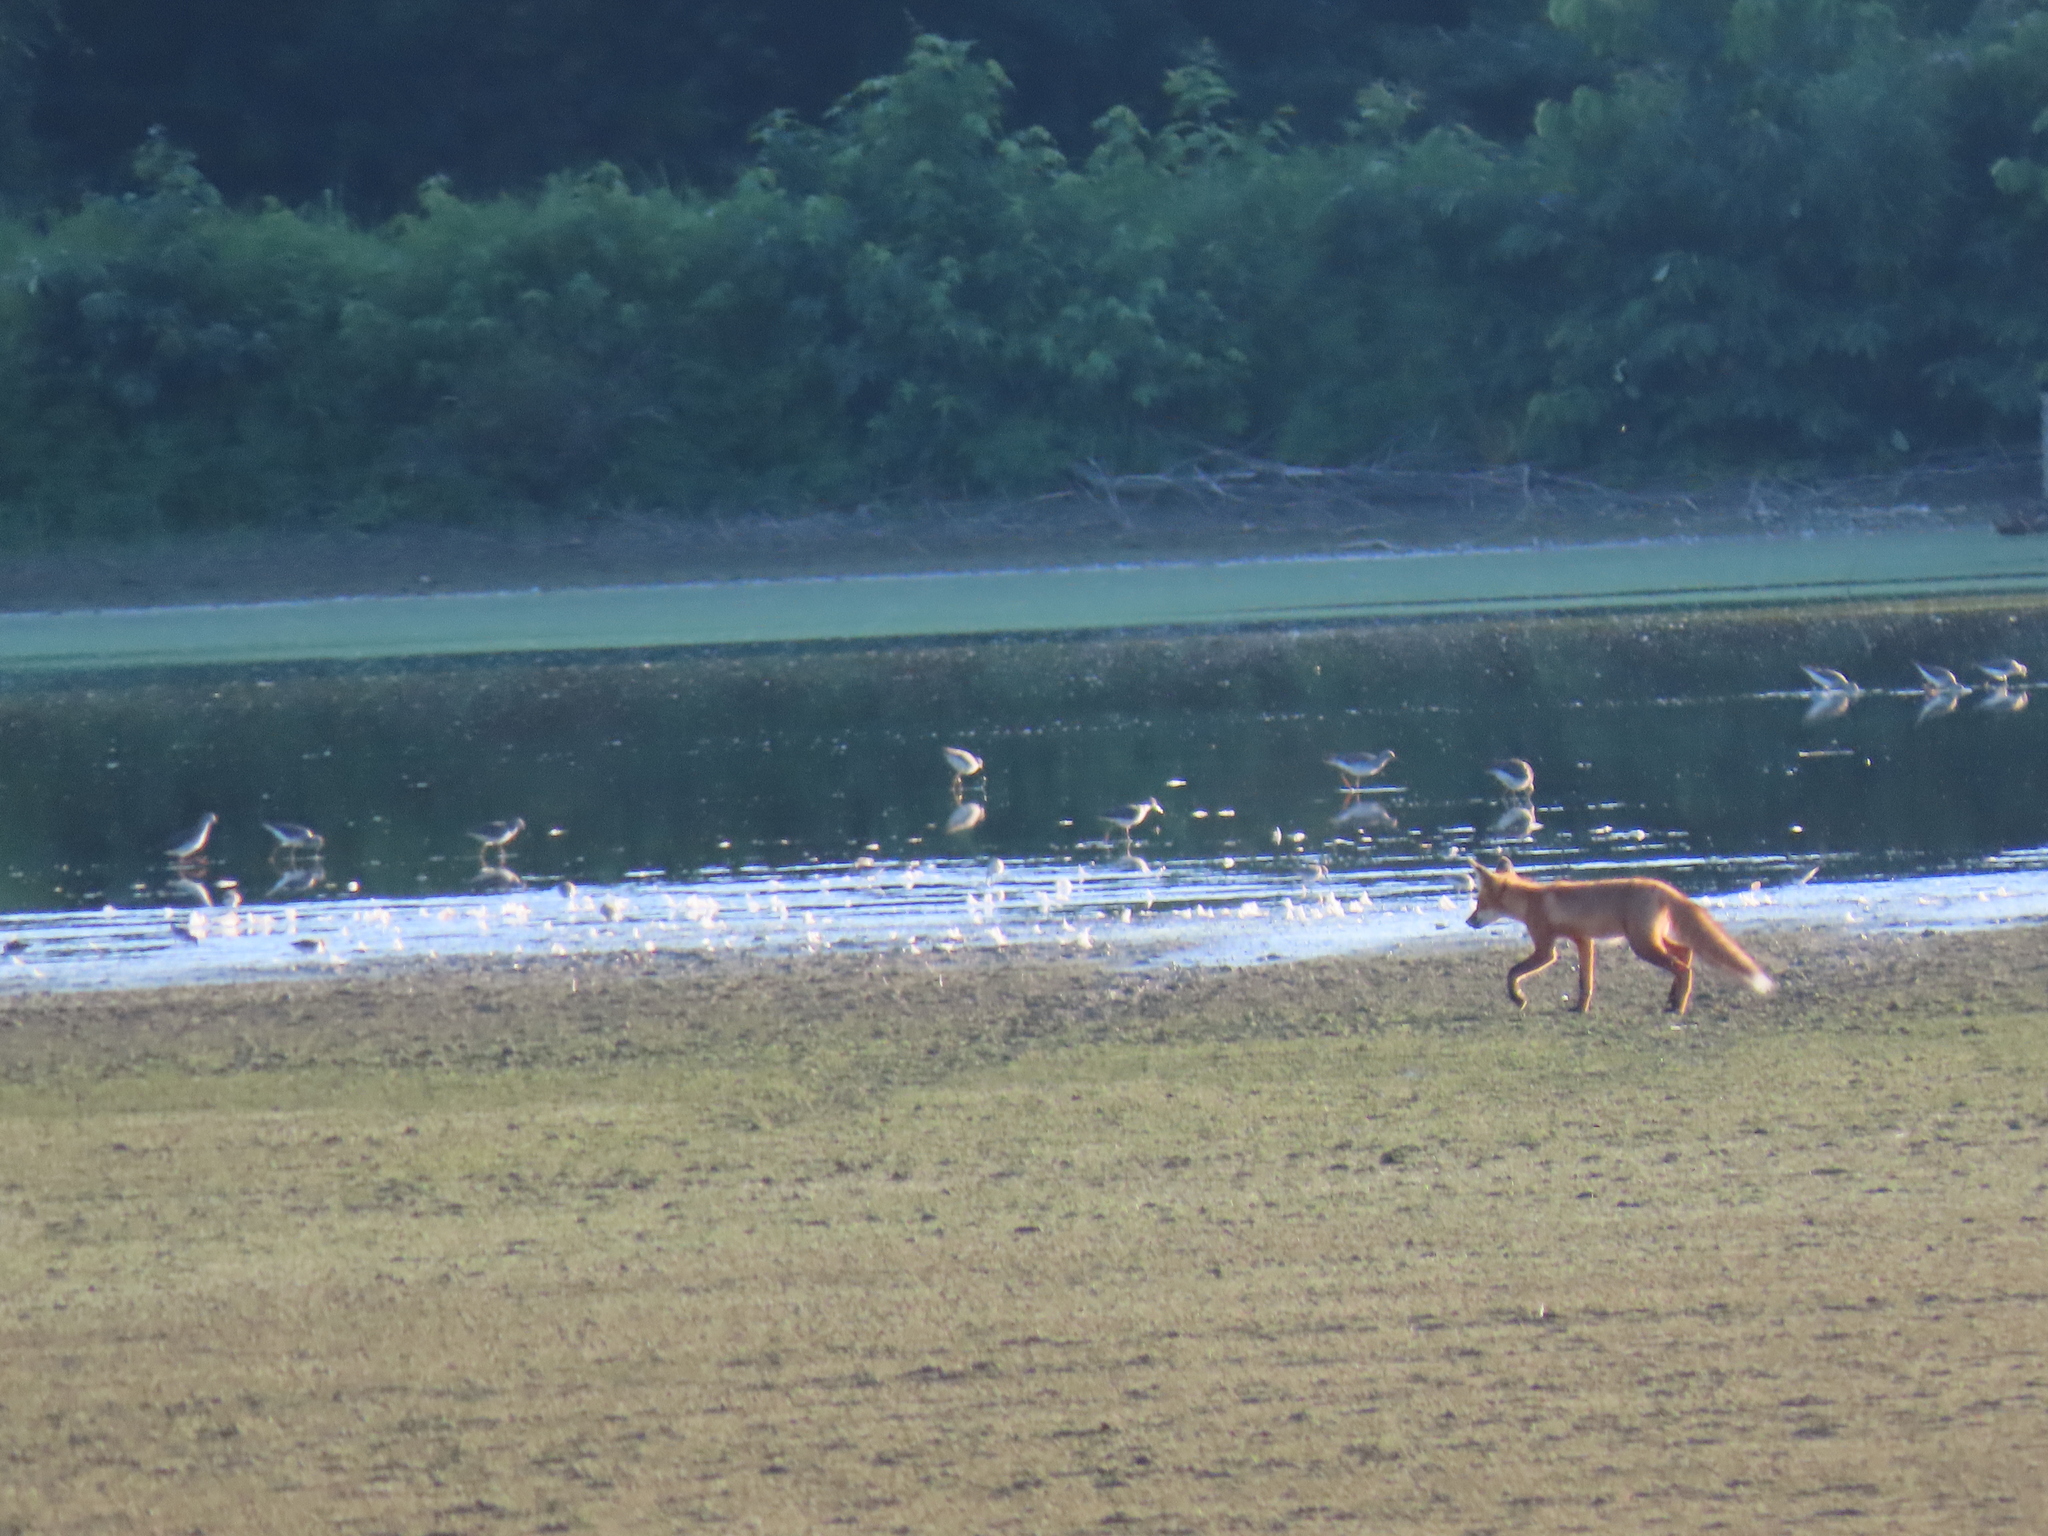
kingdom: Animalia
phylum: Chordata
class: Mammalia
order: Carnivora
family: Canidae
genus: Vulpes
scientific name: Vulpes vulpes
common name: Red fox
